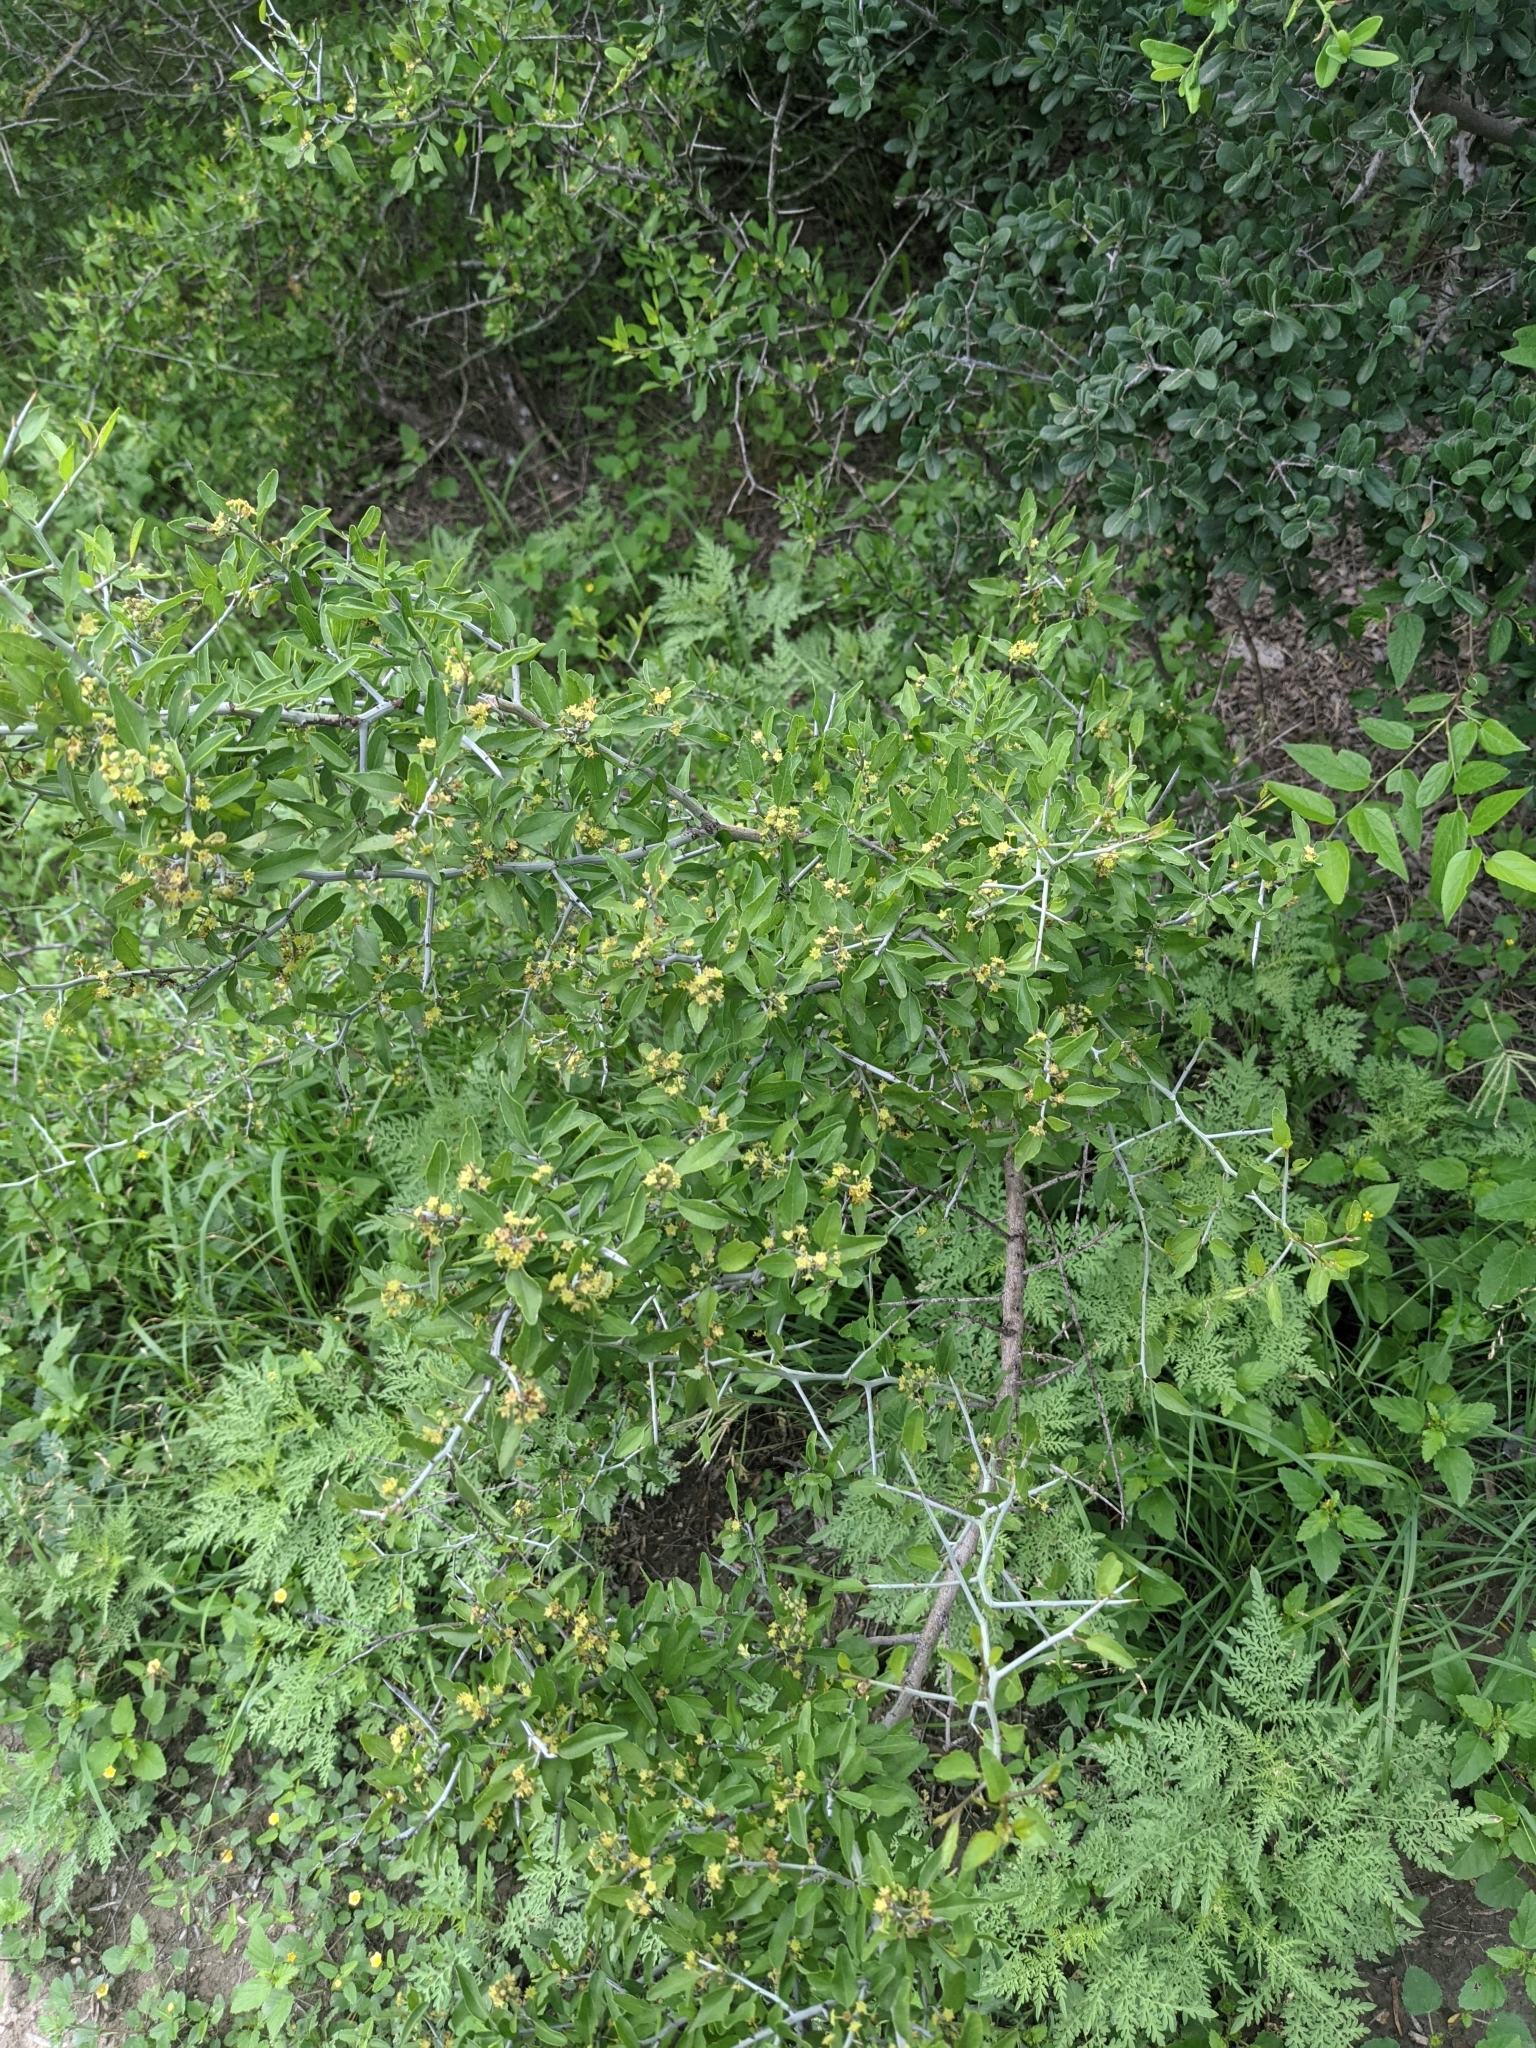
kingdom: Plantae
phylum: Tracheophyta
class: Magnoliopsida
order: Rosales
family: Rhamnaceae
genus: Sarcomphalus
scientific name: Sarcomphalus obtusifolius
